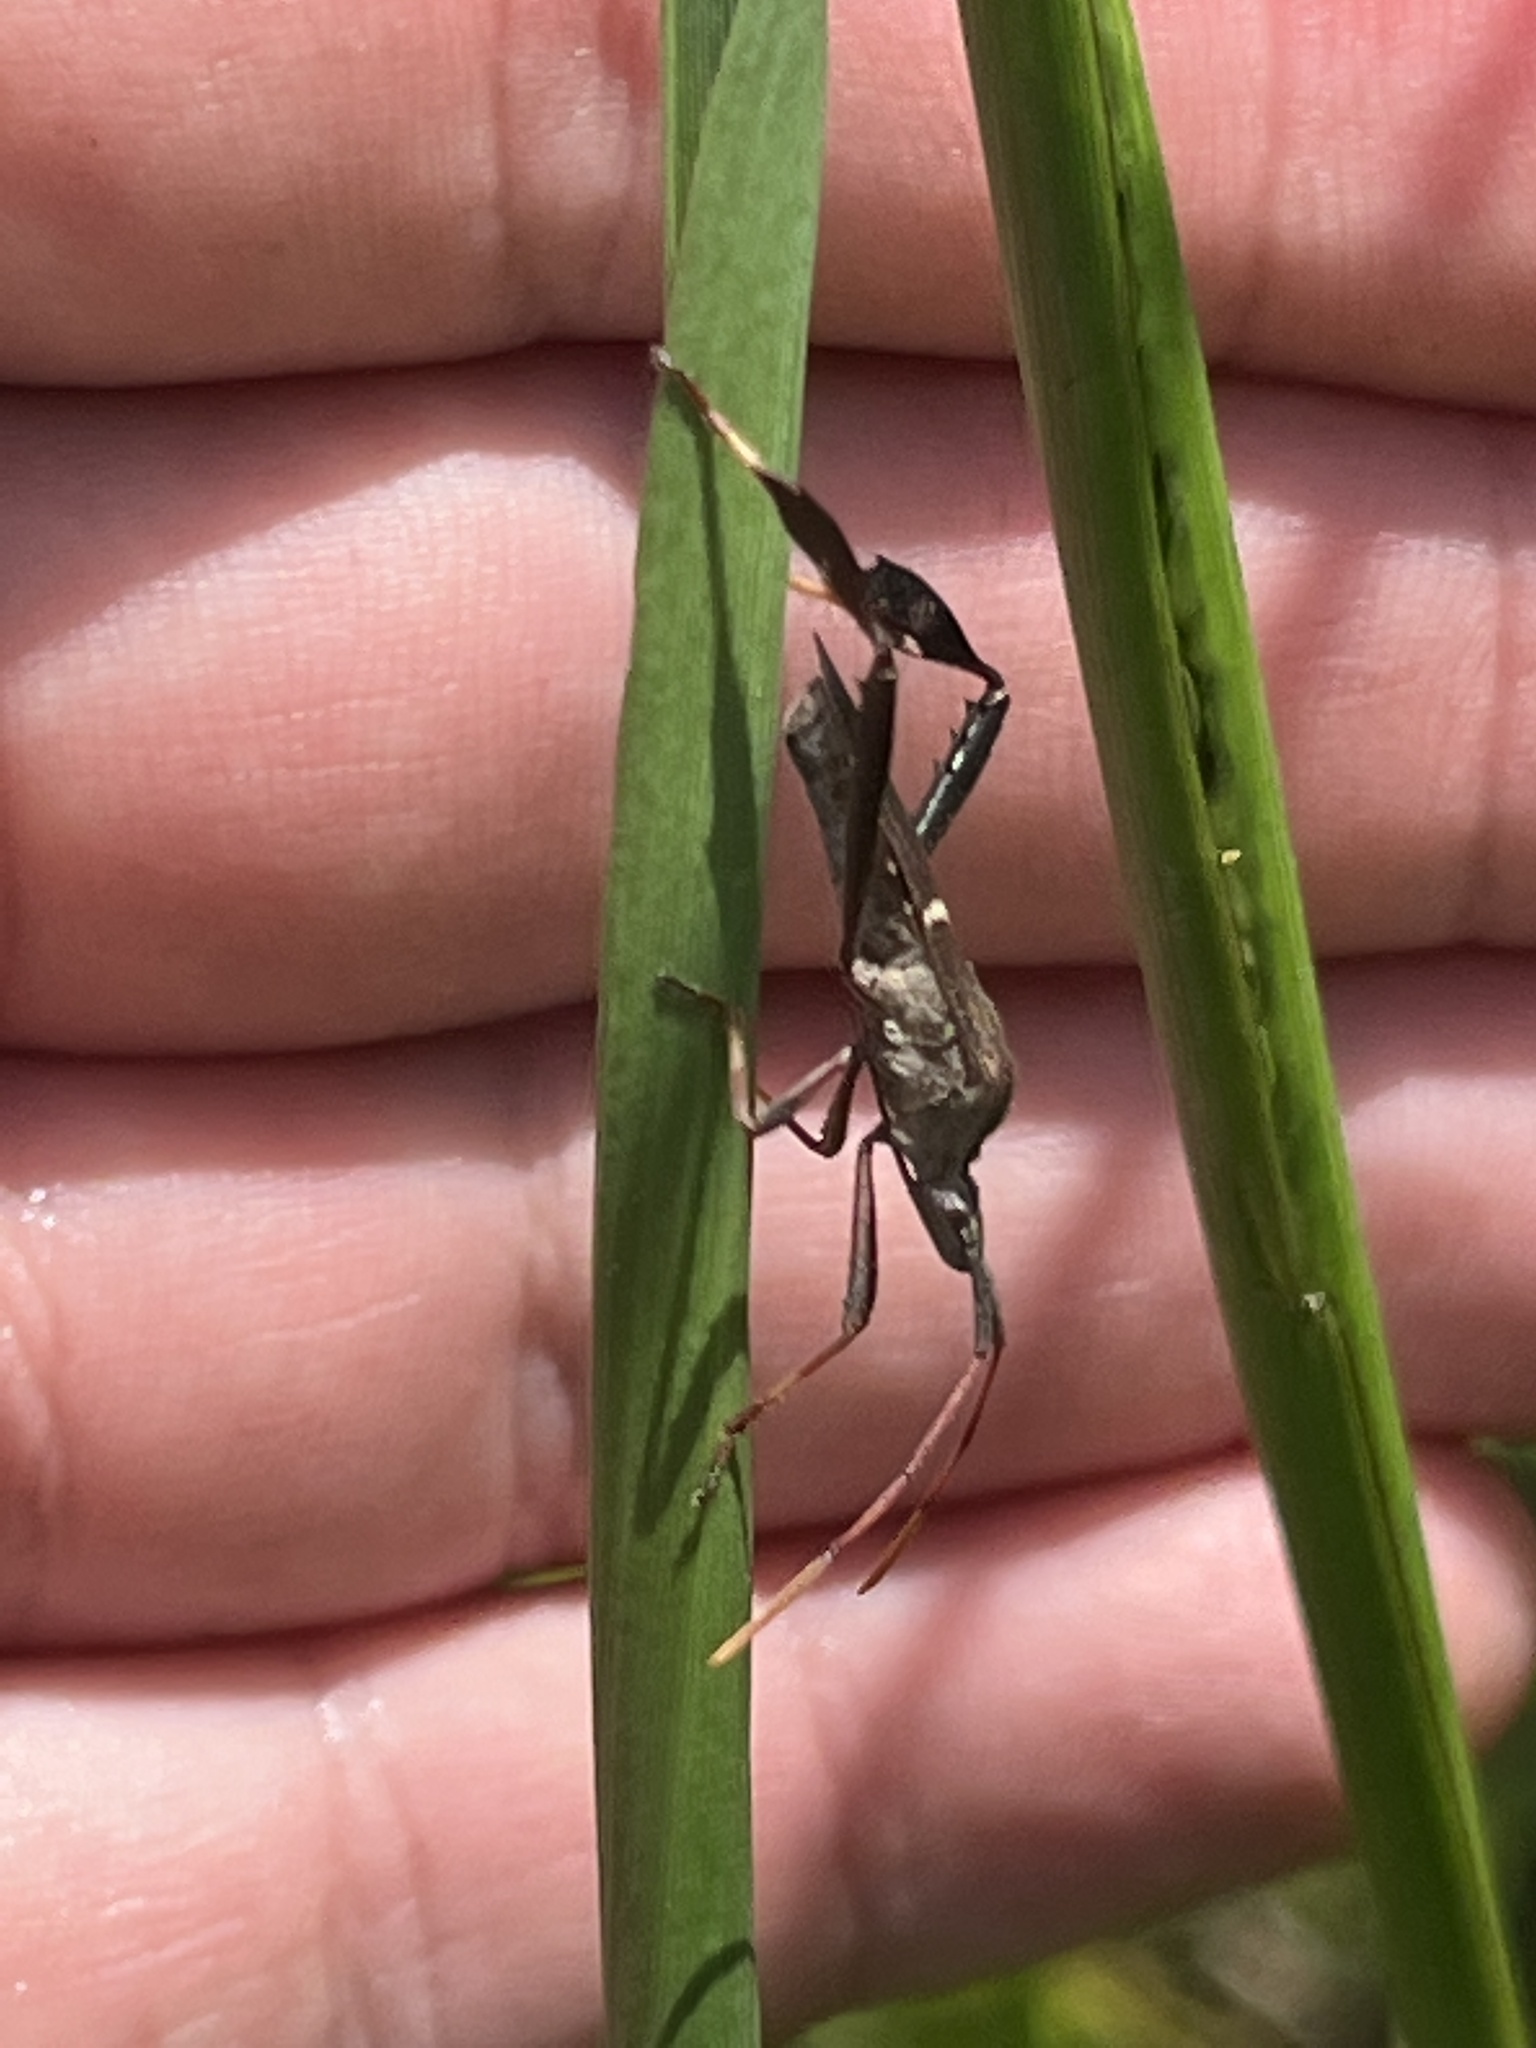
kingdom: Animalia
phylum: Arthropoda
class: Insecta
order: Hemiptera
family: Coreidae
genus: Leptoglossus
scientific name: Leptoglossus phyllopus
